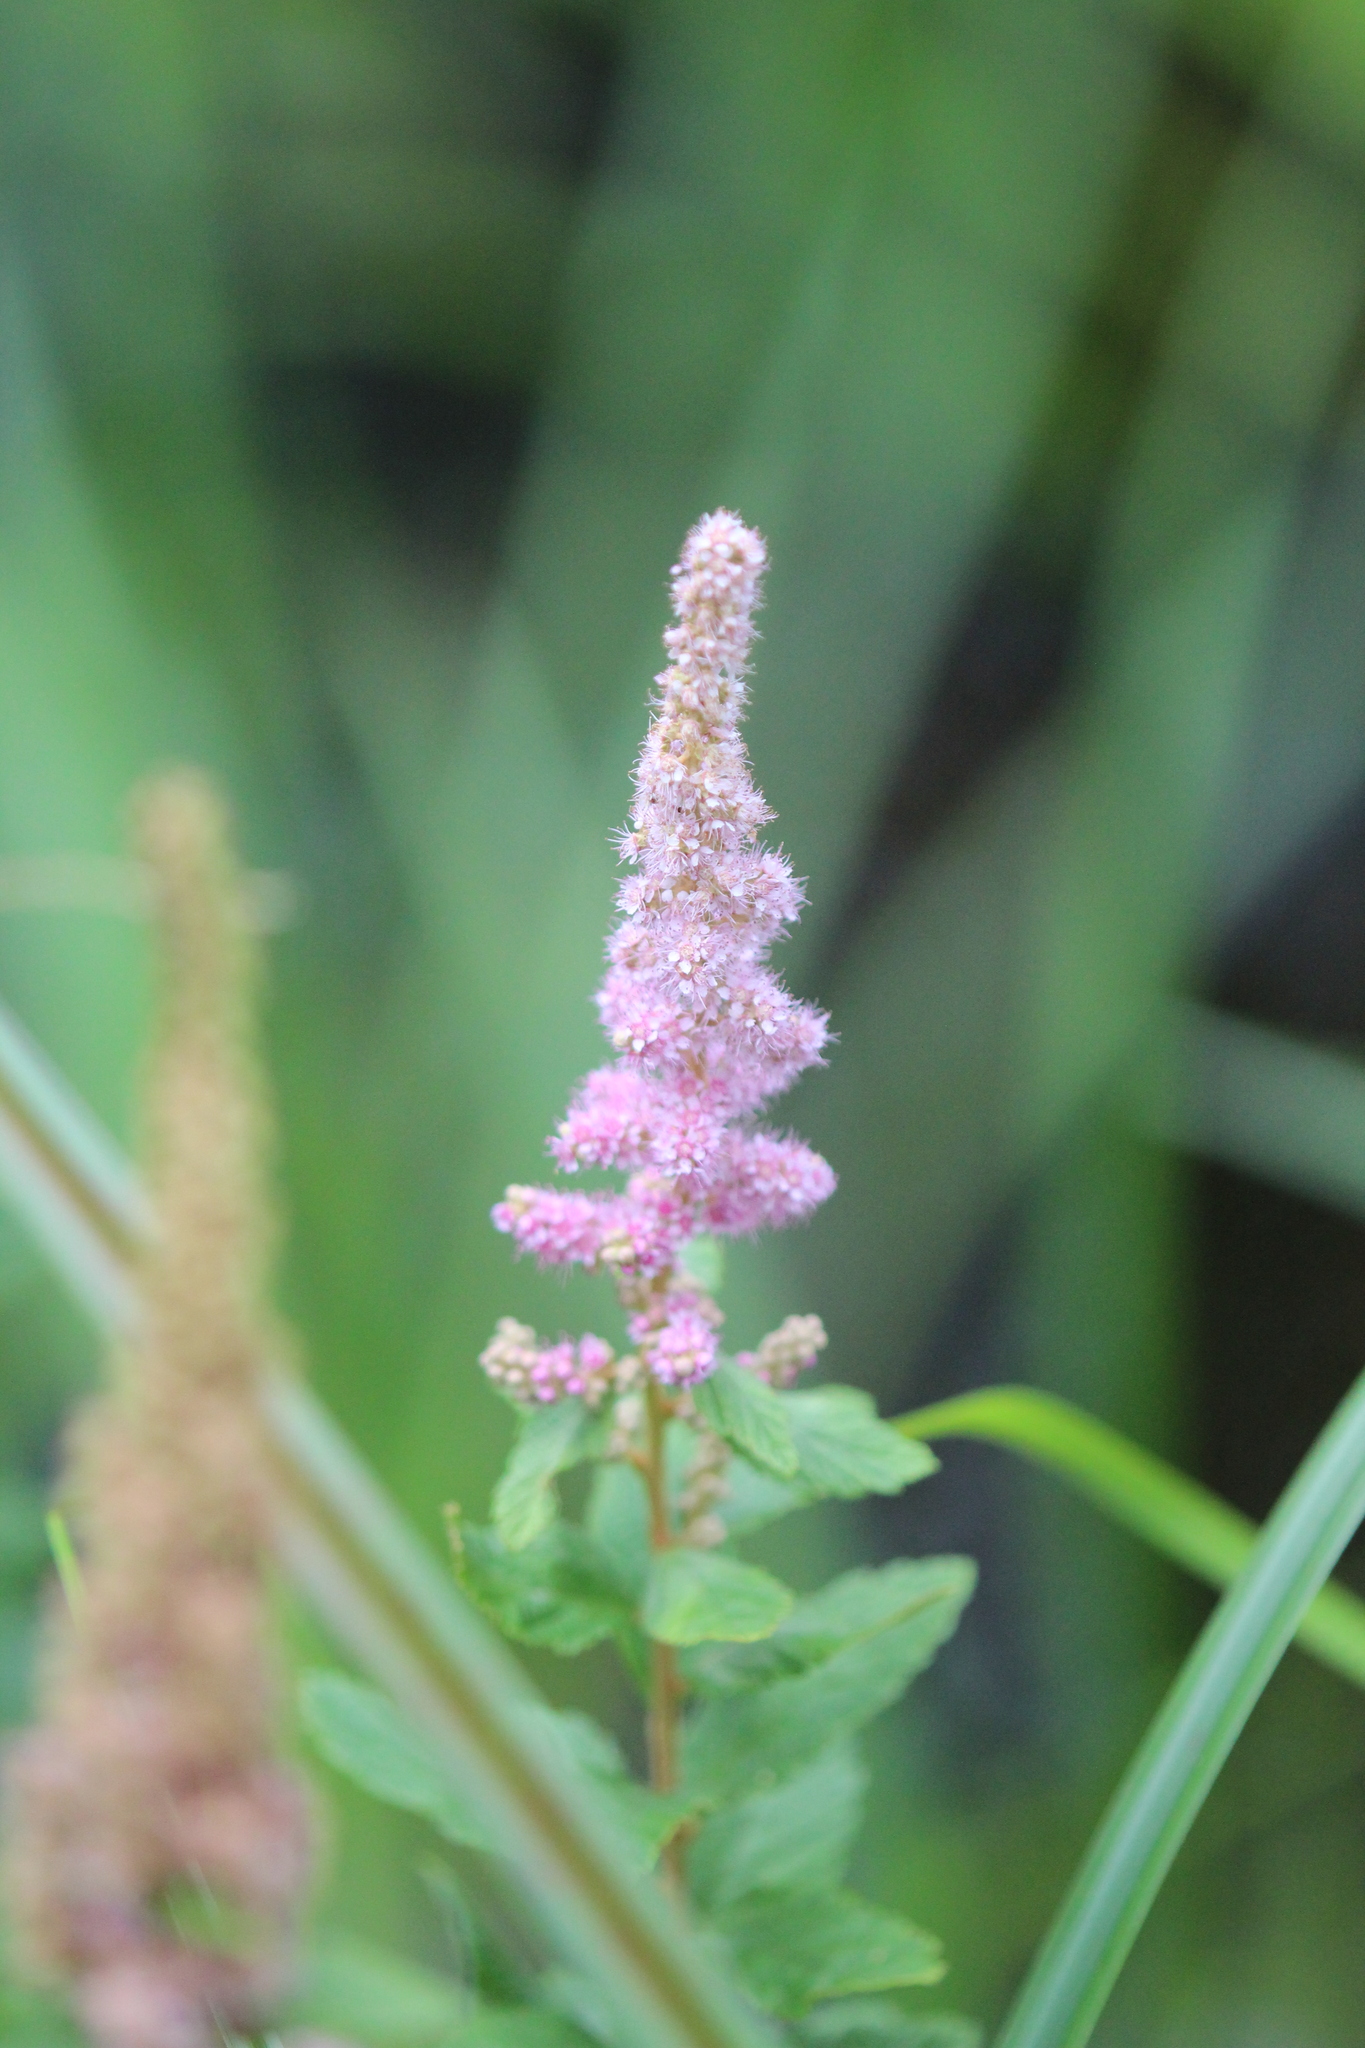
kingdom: Plantae
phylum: Tracheophyta
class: Magnoliopsida
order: Rosales
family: Rosaceae
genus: Spiraea
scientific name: Spiraea tomentosa
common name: Hardhack
